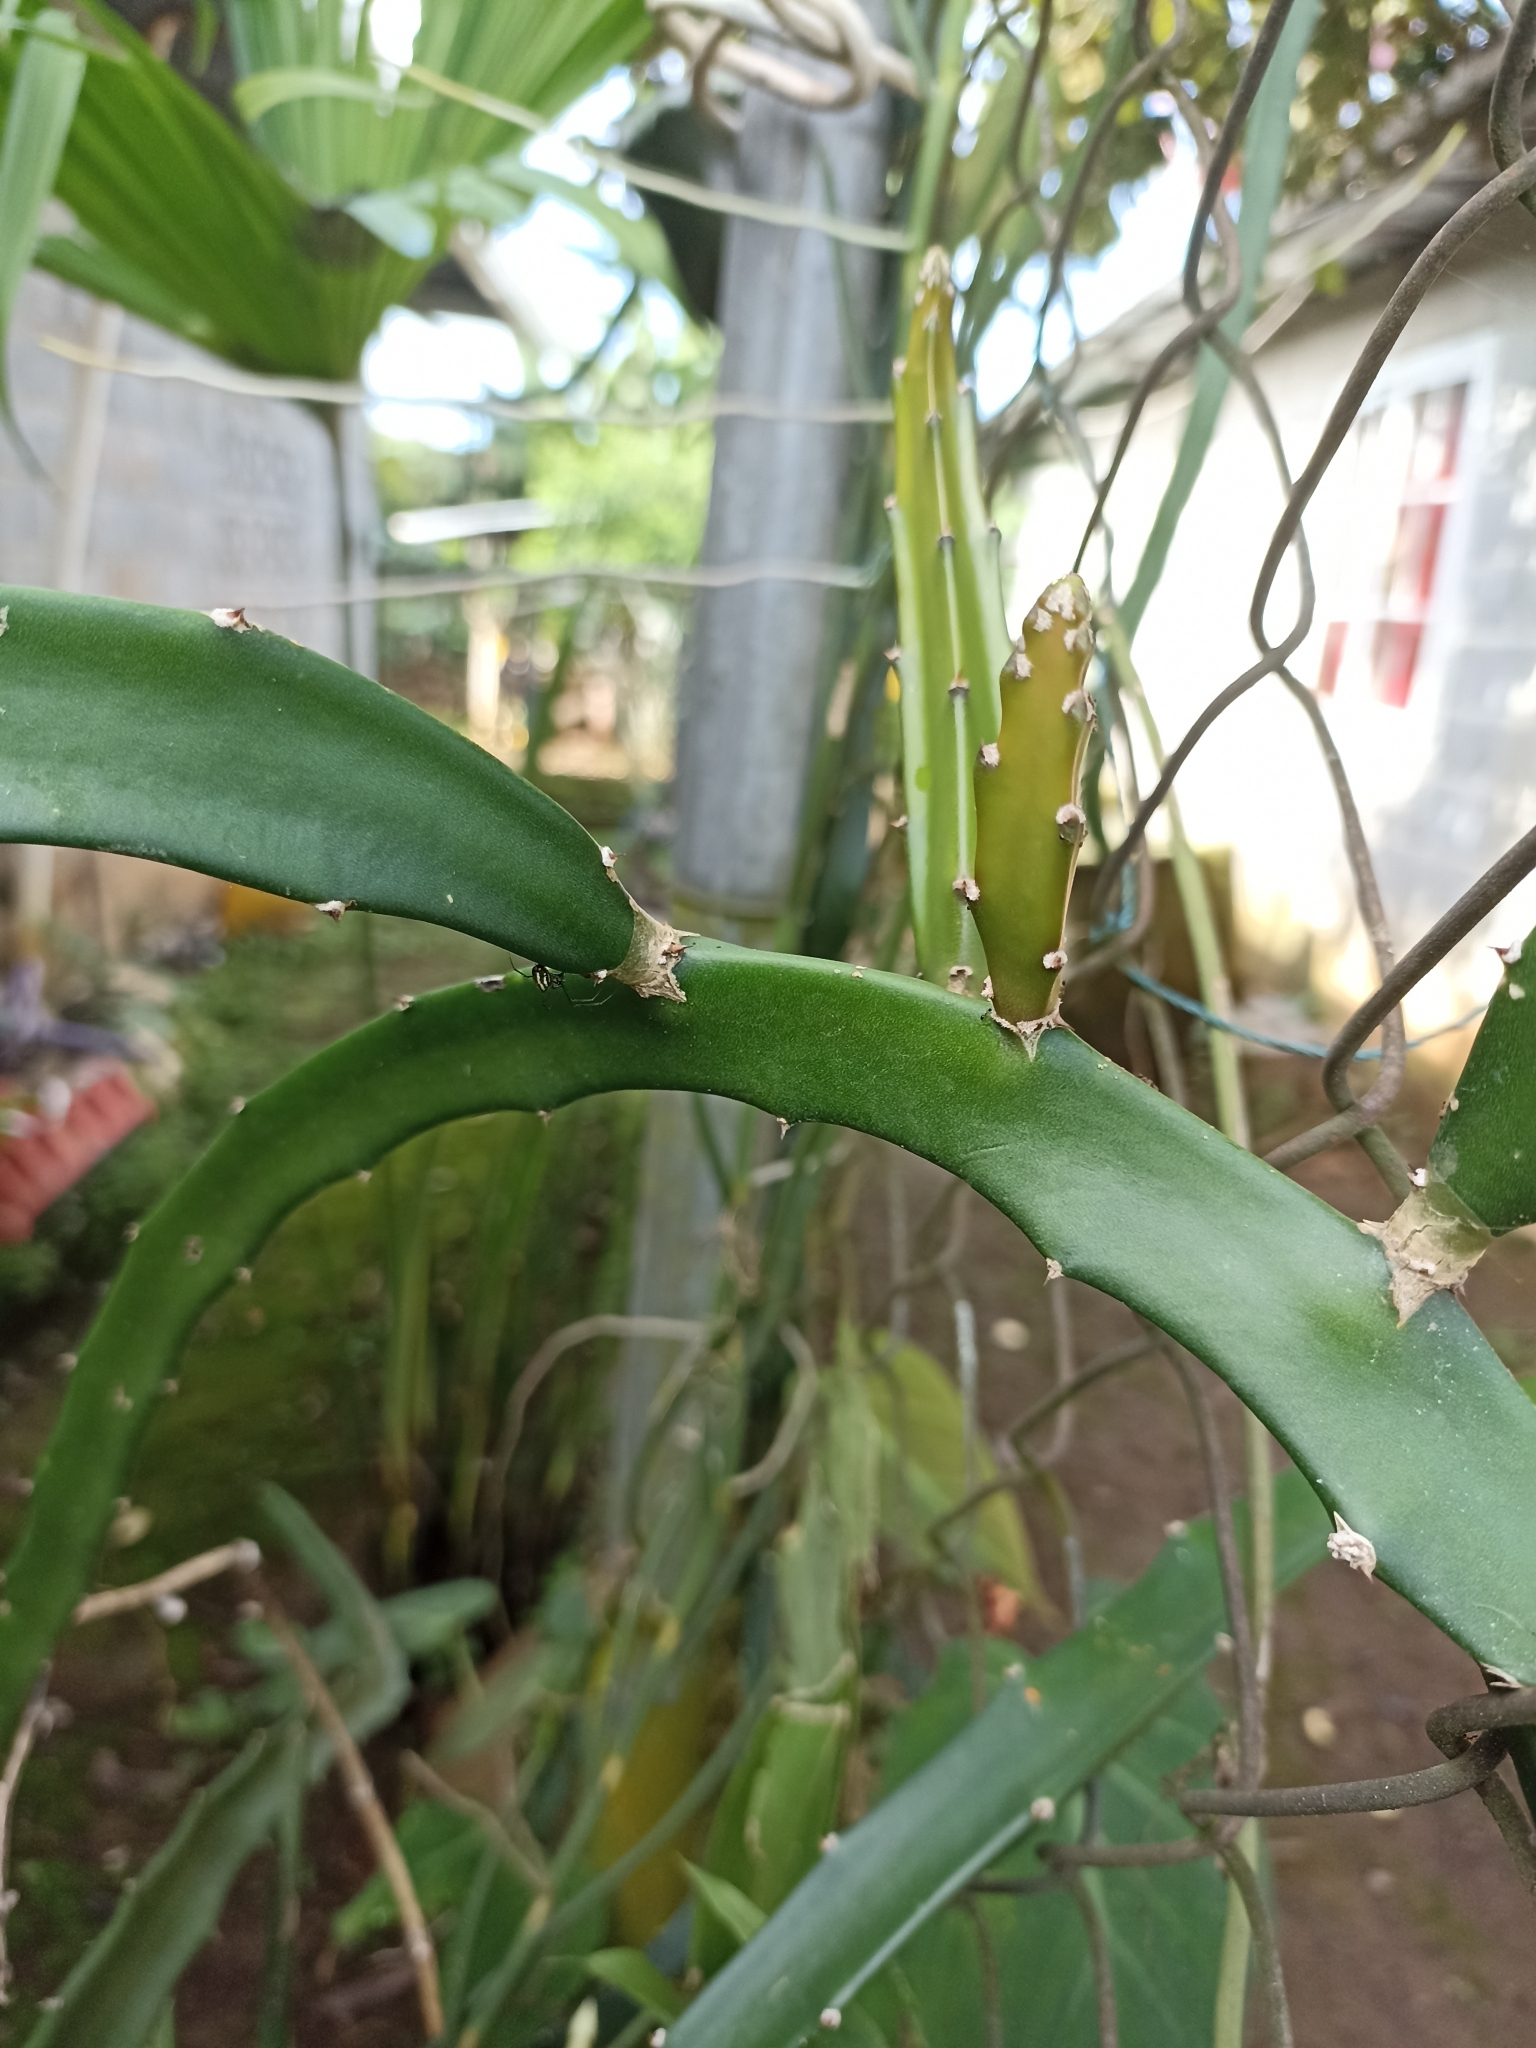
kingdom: Plantae
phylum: Tracheophyta
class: Magnoliopsida
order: Caryophyllales
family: Cactaceae
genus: Selenicereus
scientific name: Selenicereus undatus
